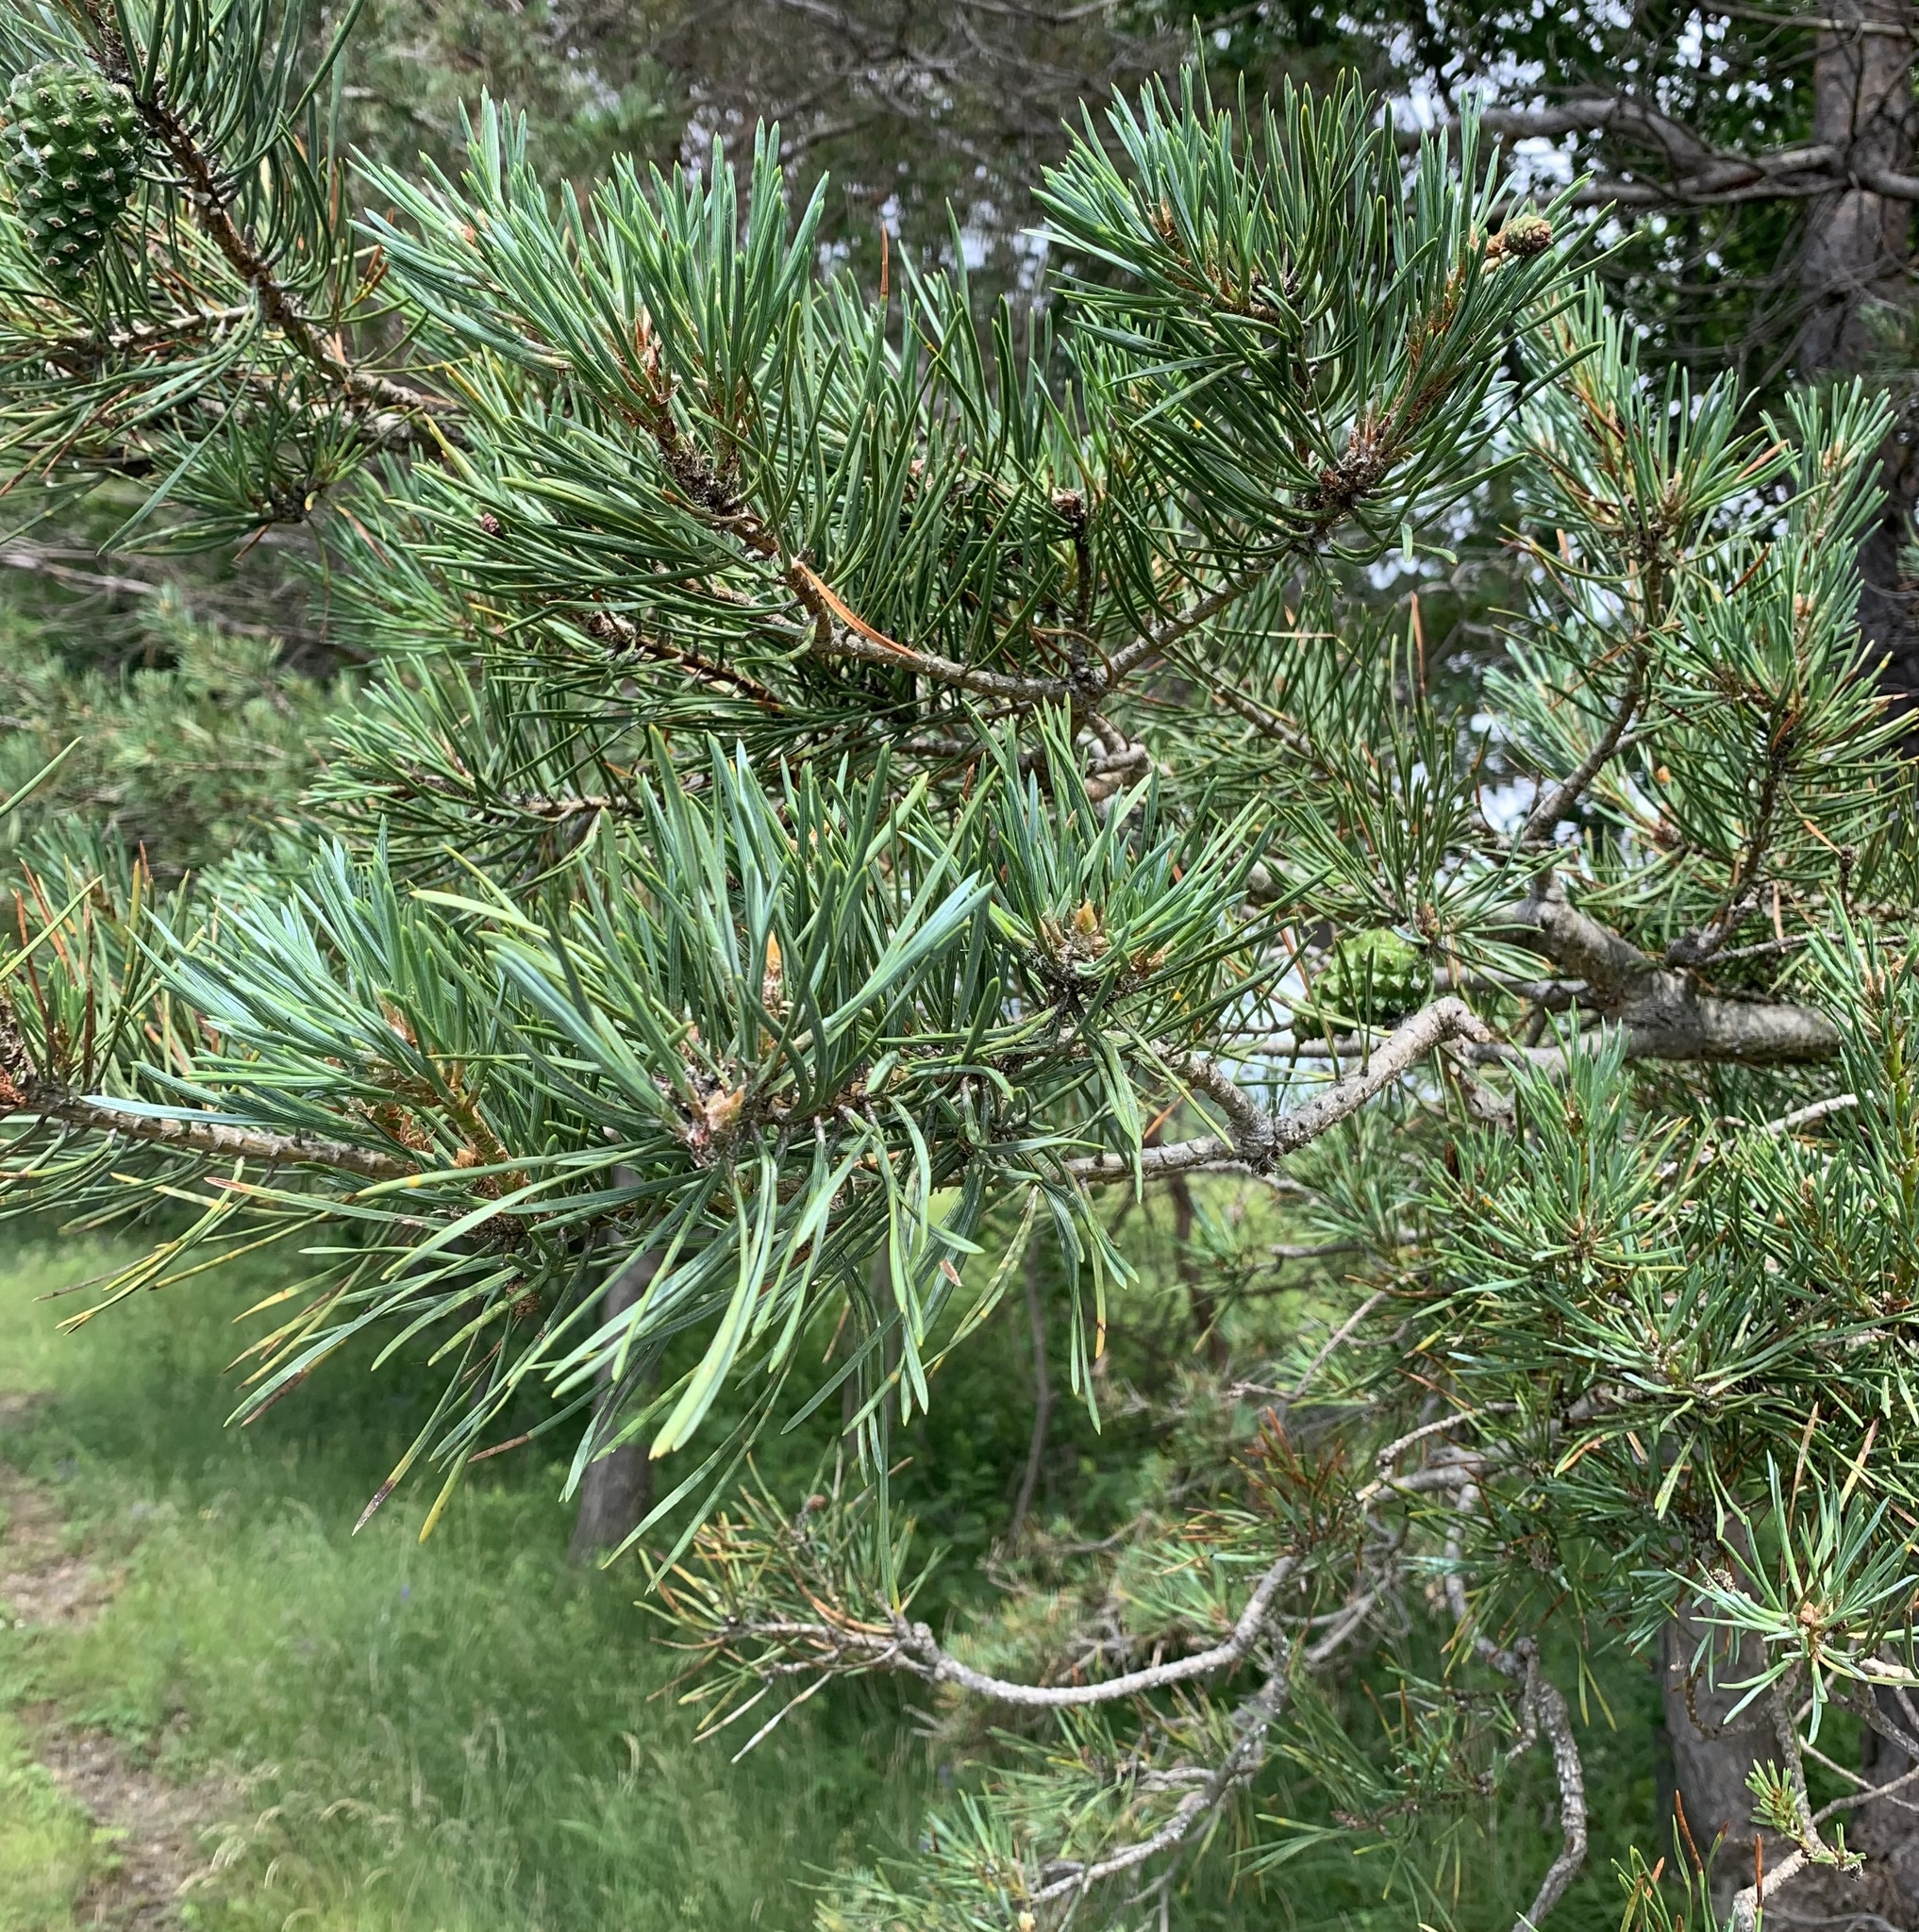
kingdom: Plantae
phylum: Tracheophyta
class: Pinopsida
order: Pinales
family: Pinaceae
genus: Pinus
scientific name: Pinus sylvestris
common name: Scots pine
